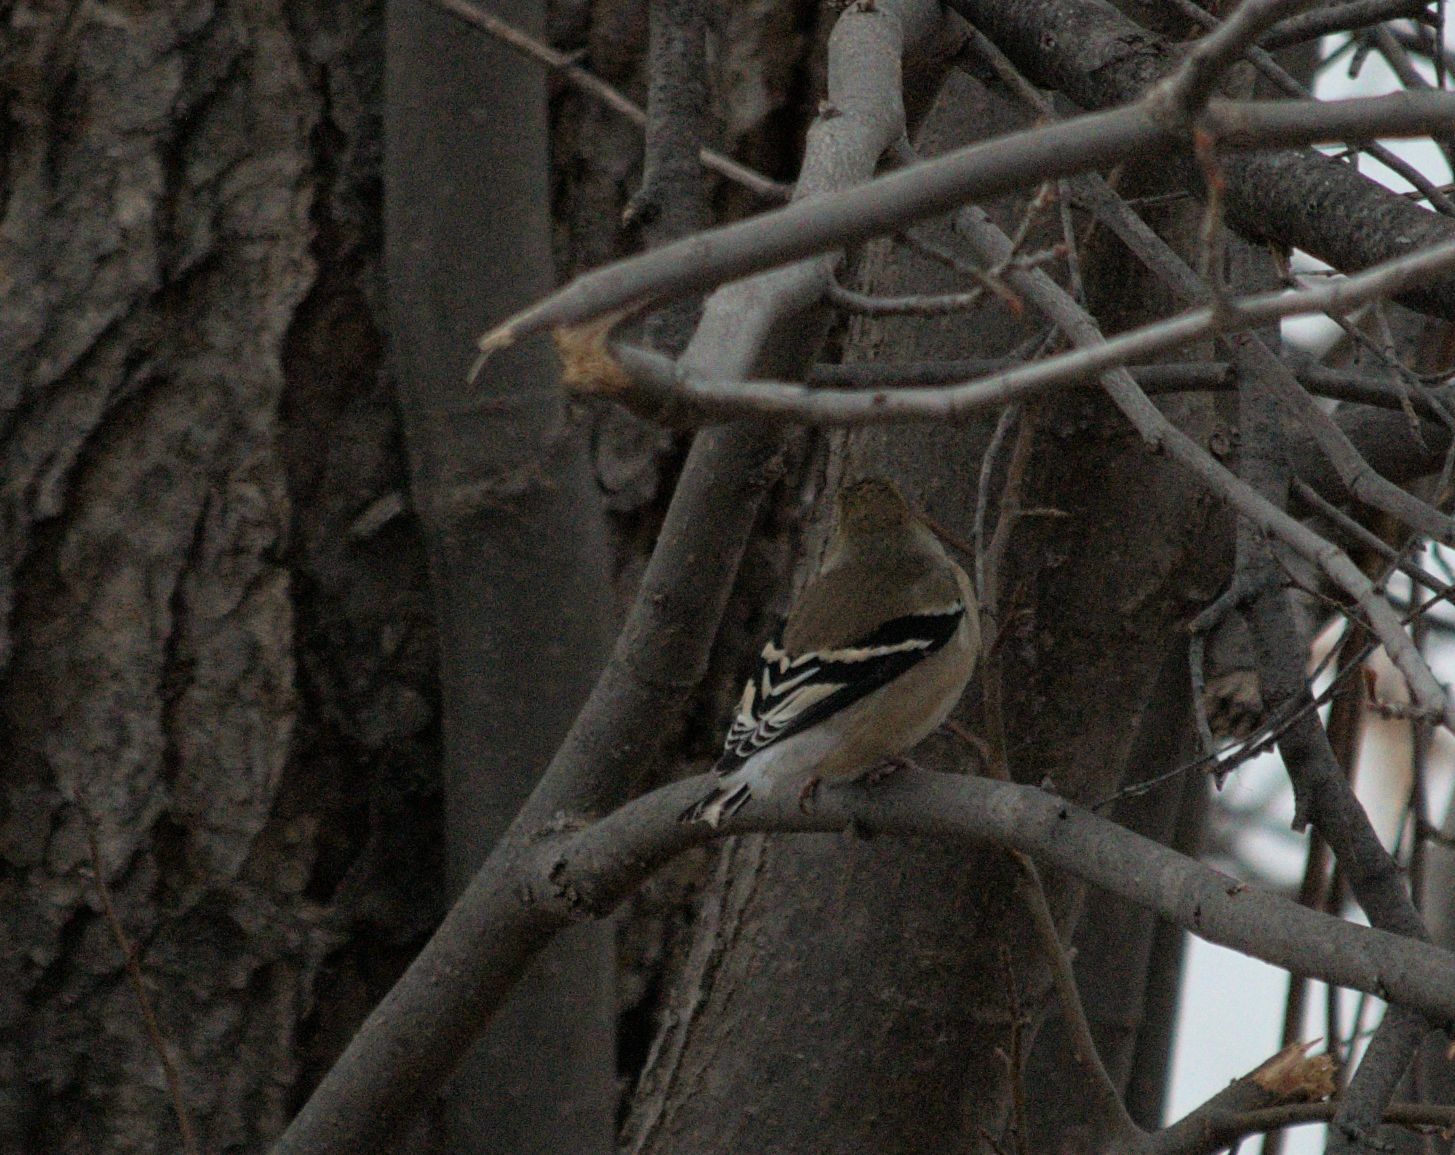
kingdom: Animalia
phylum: Chordata
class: Aves
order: Passeriformes
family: Fringillidae
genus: Spinus
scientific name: Spinus tristis
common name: American goldfinch
